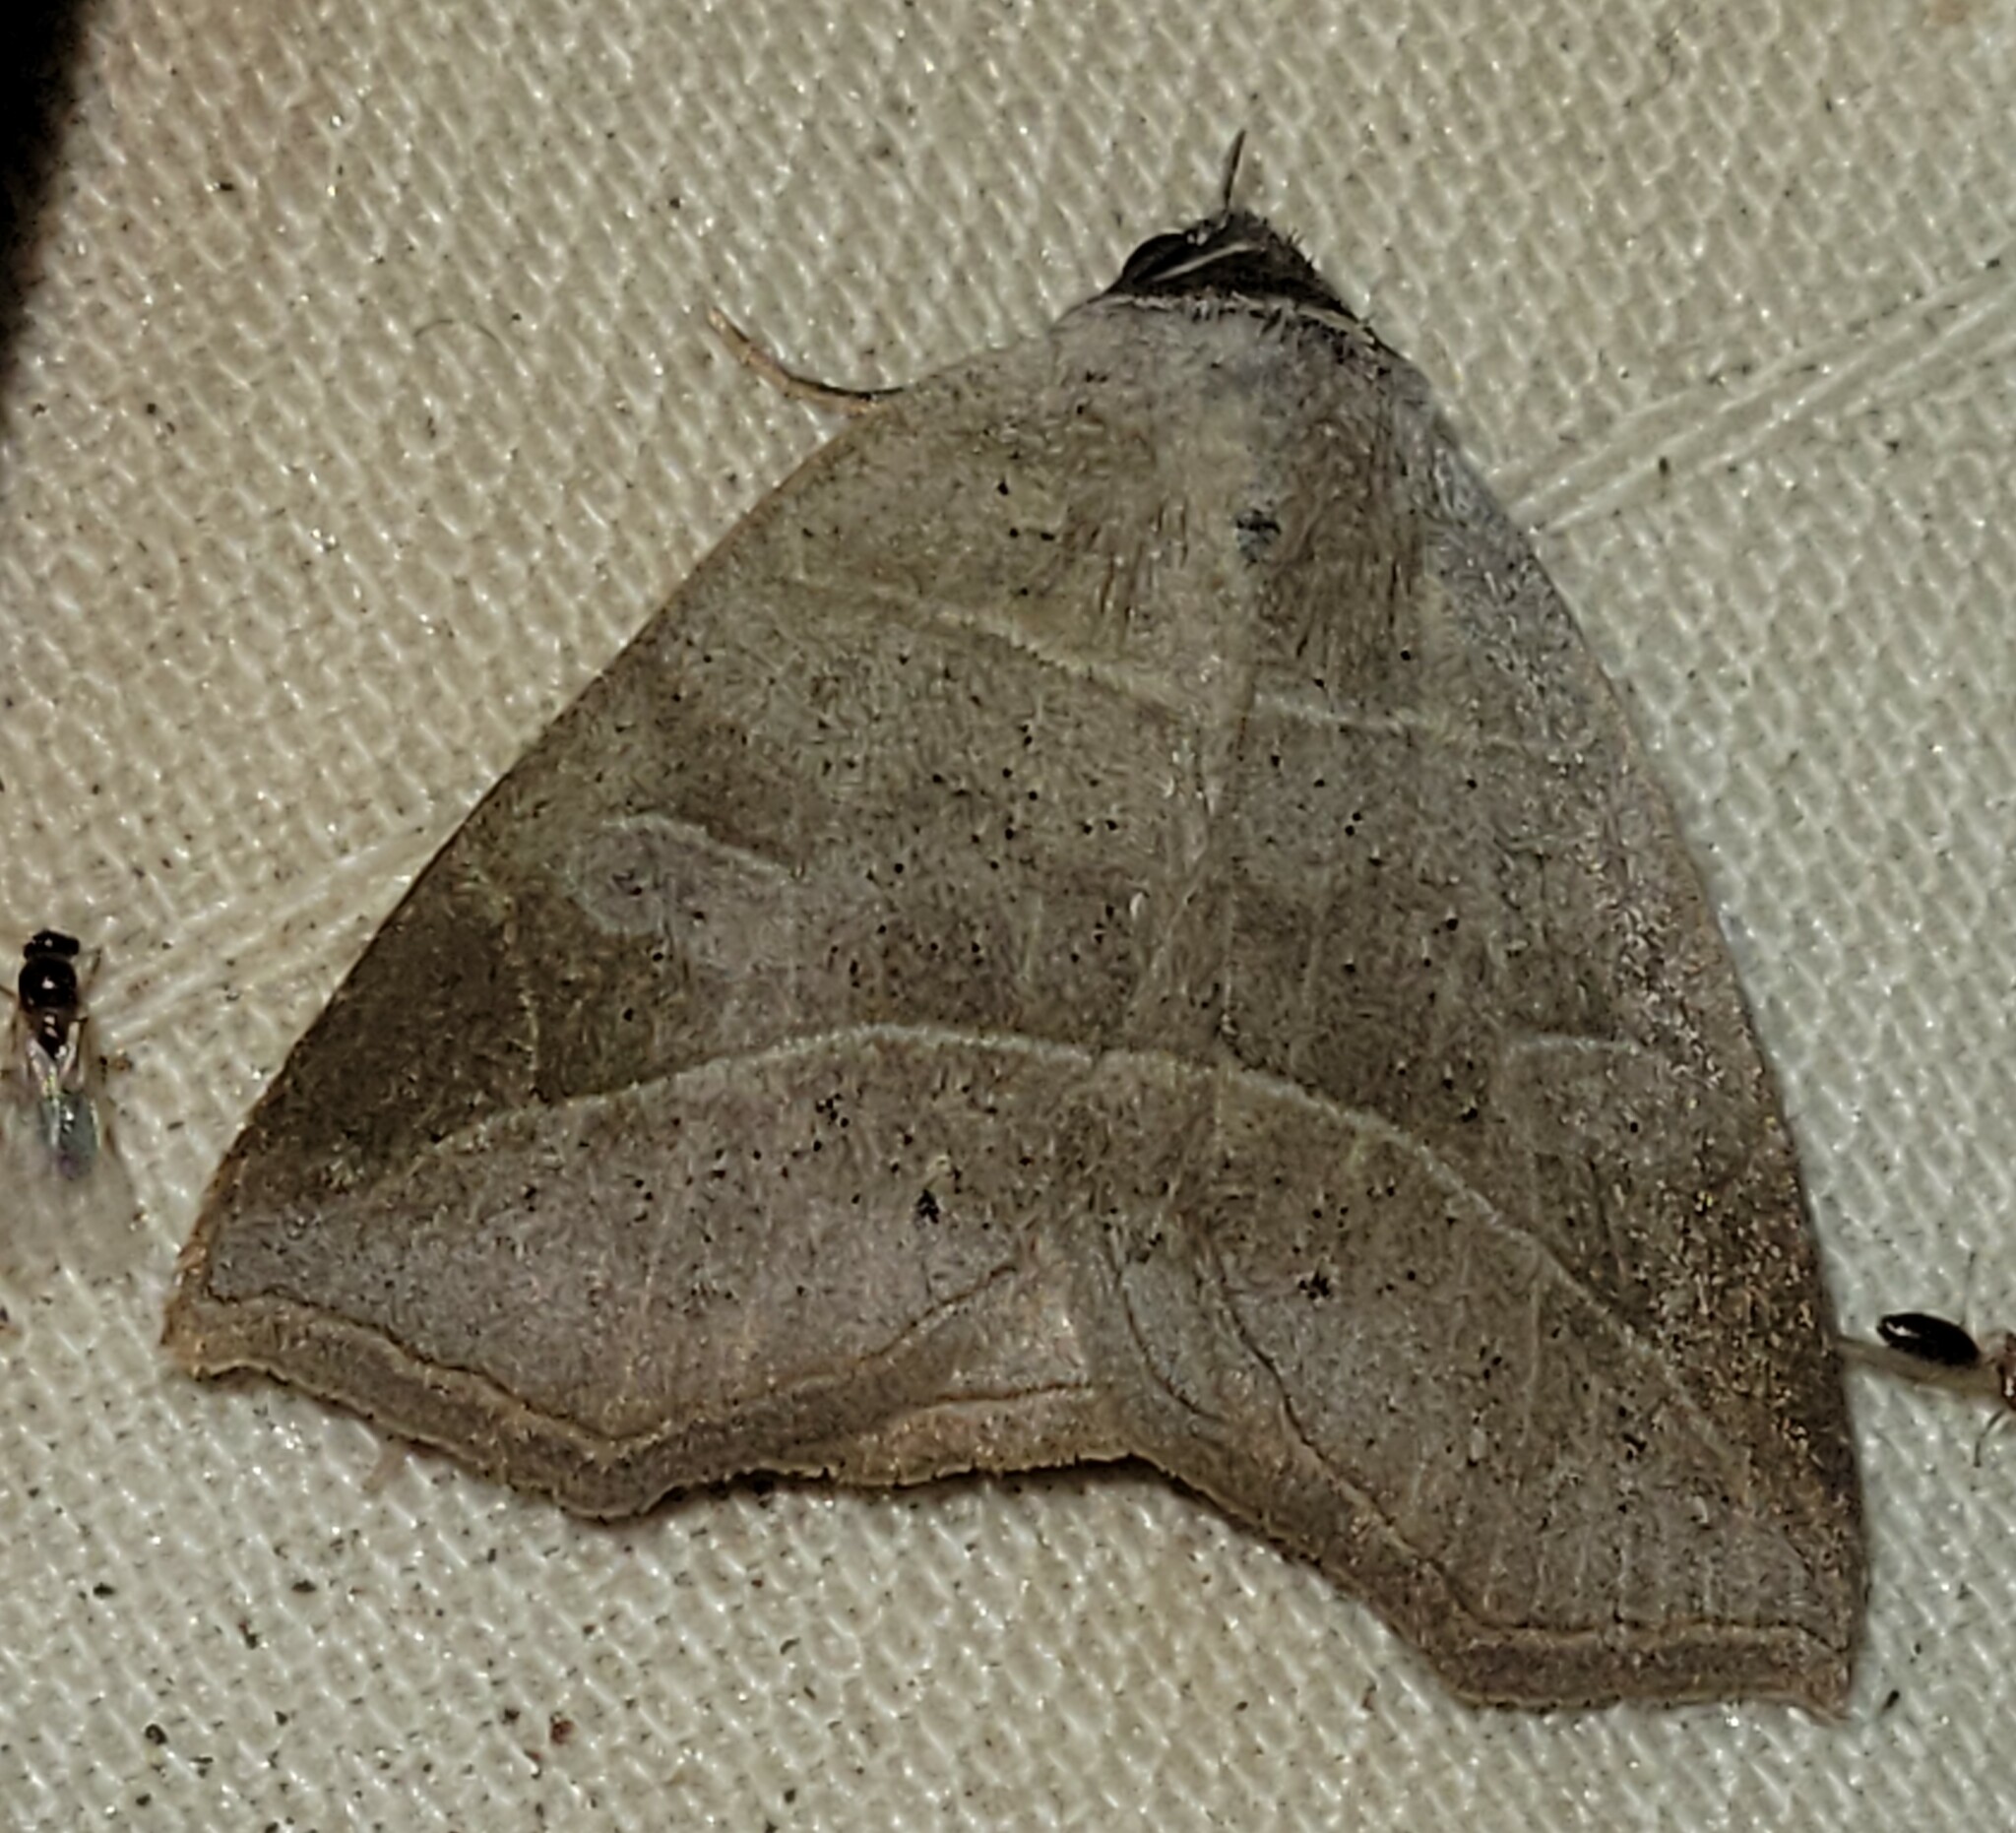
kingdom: Animalia
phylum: Arthropoda
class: Insecta
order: Lepidoptera
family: Erebidae
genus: Isogona
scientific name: Isogona tenuis
